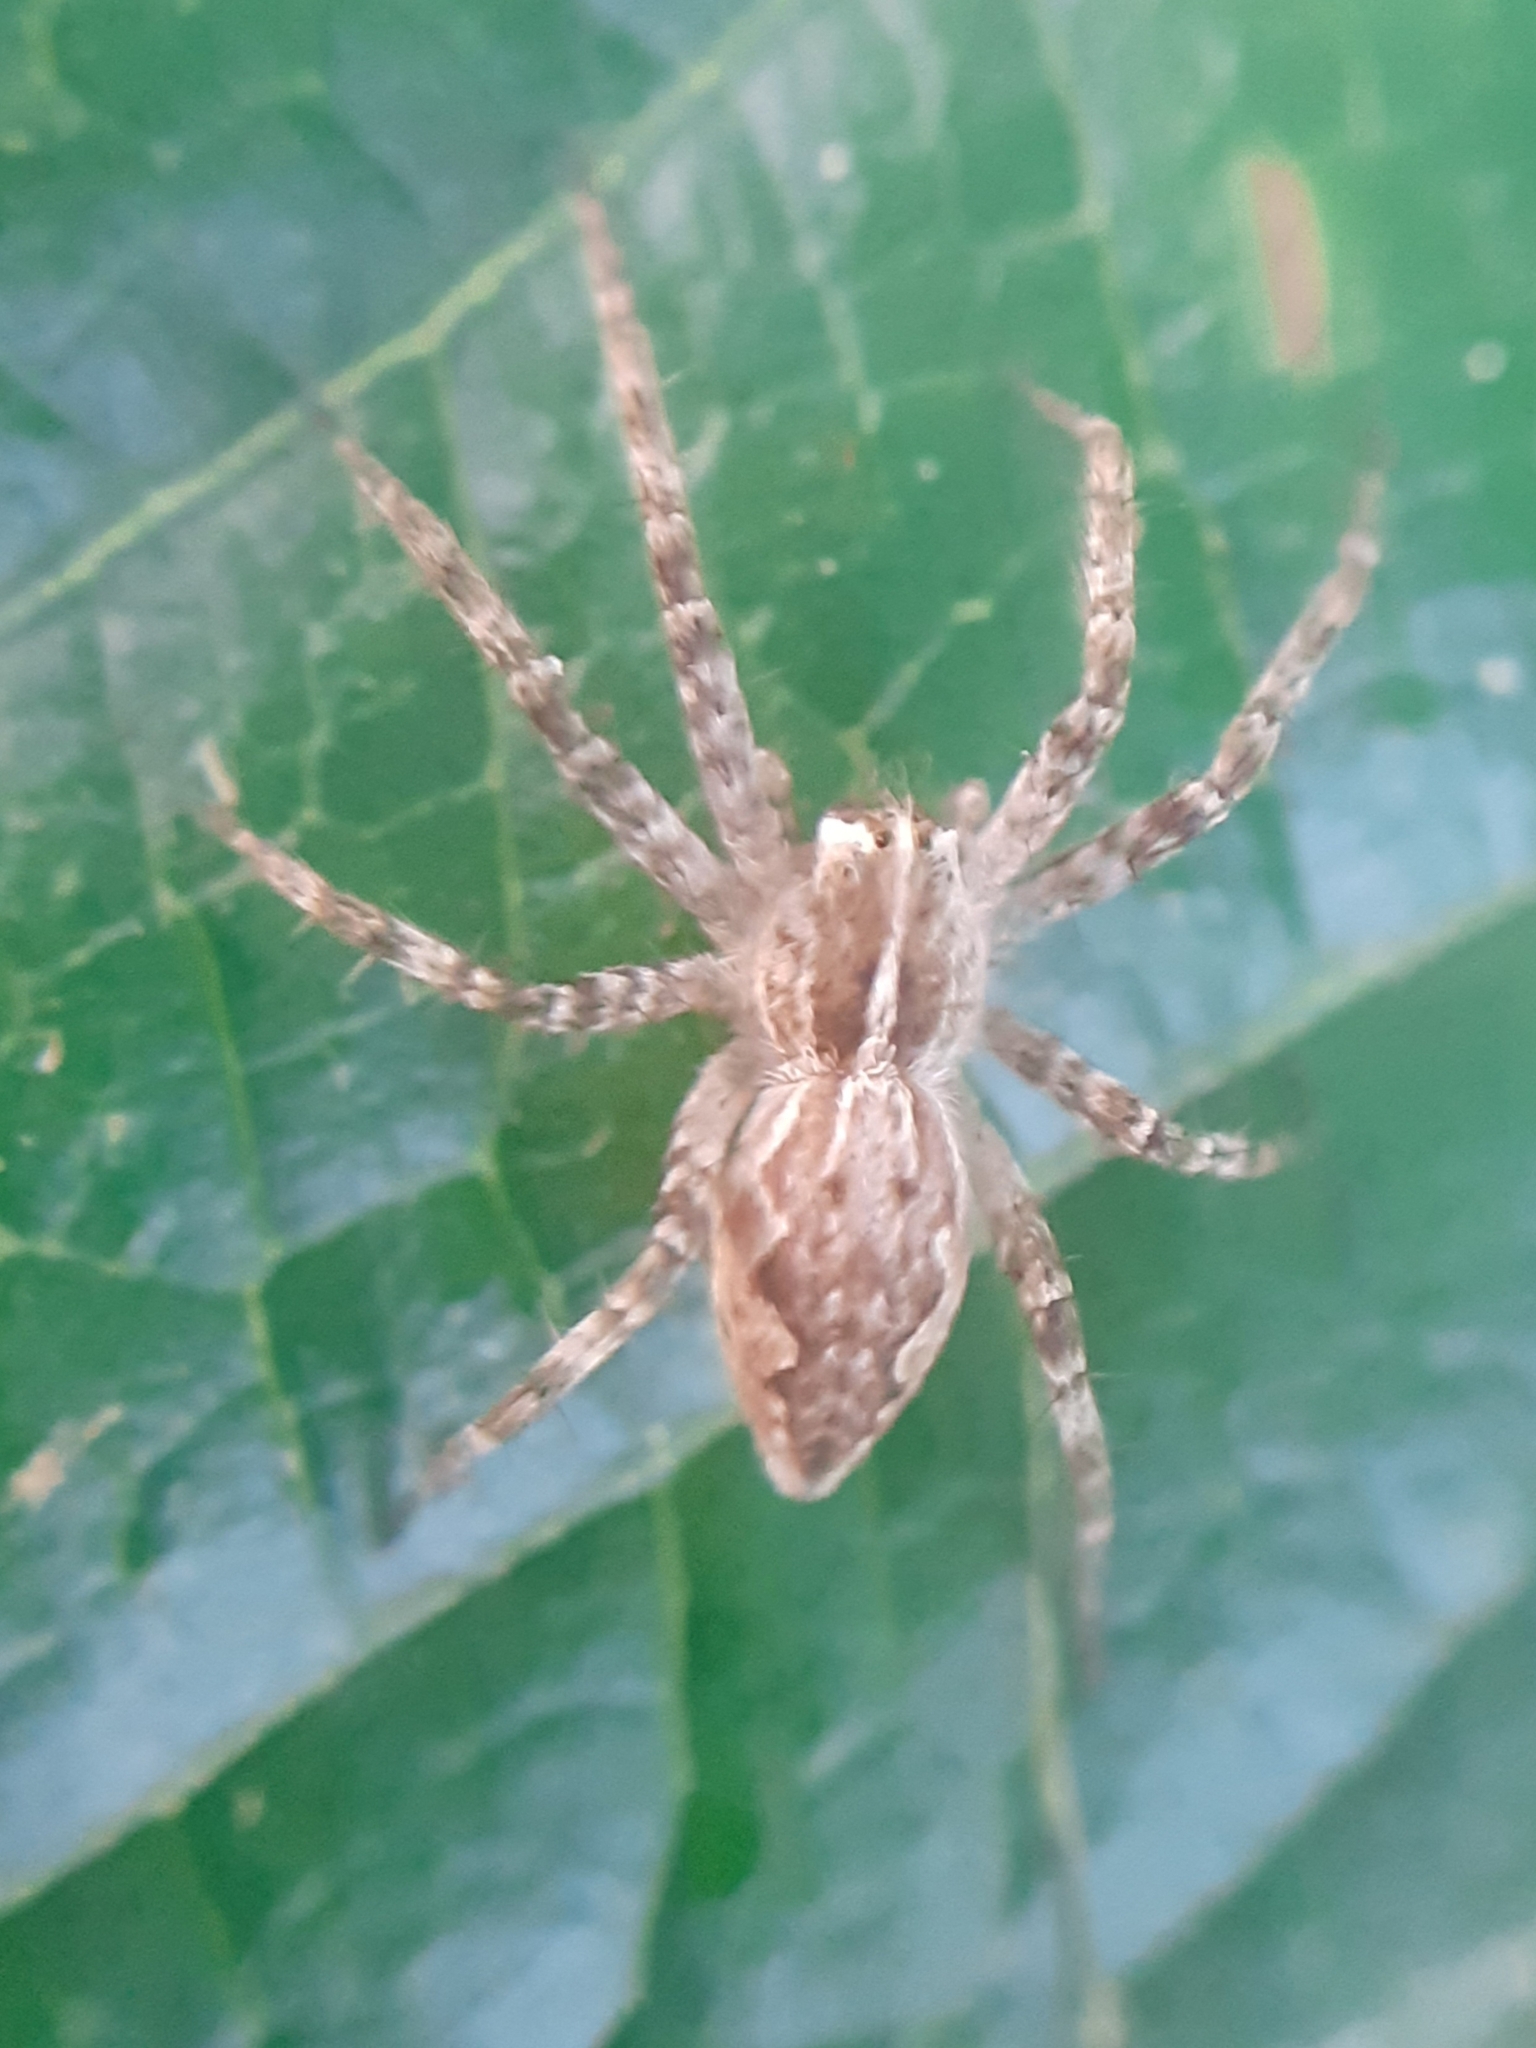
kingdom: Animalia
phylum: Arthropoda
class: Arachnida
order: Araneae
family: Pisauridae
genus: Pisaura
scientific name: Pisaura mirabilis
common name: Tent spider
